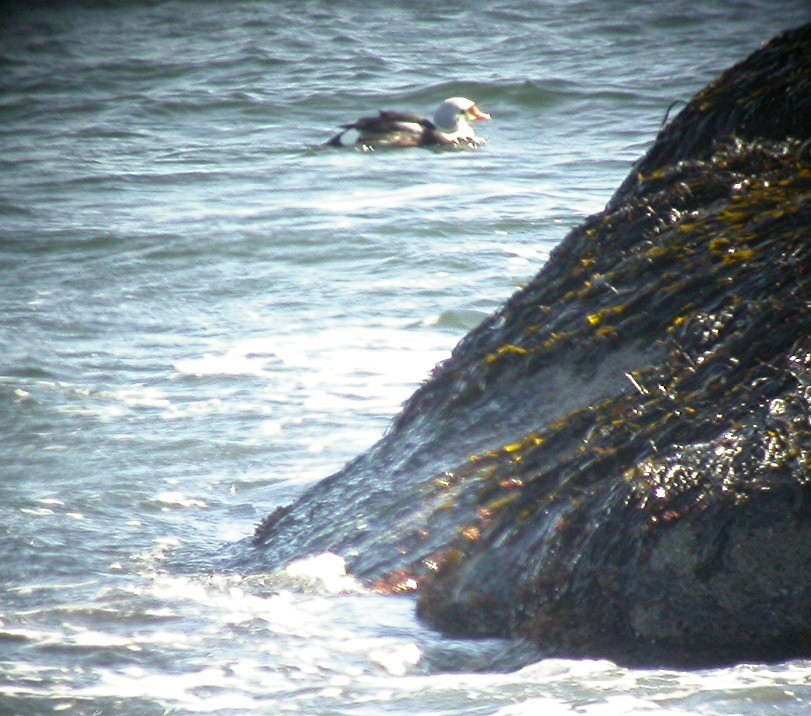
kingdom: Animalia
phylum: Chordata
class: Aves
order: Anseriformes
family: Anatidae
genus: Somateria
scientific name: Somateria spectabilis
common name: King eider
